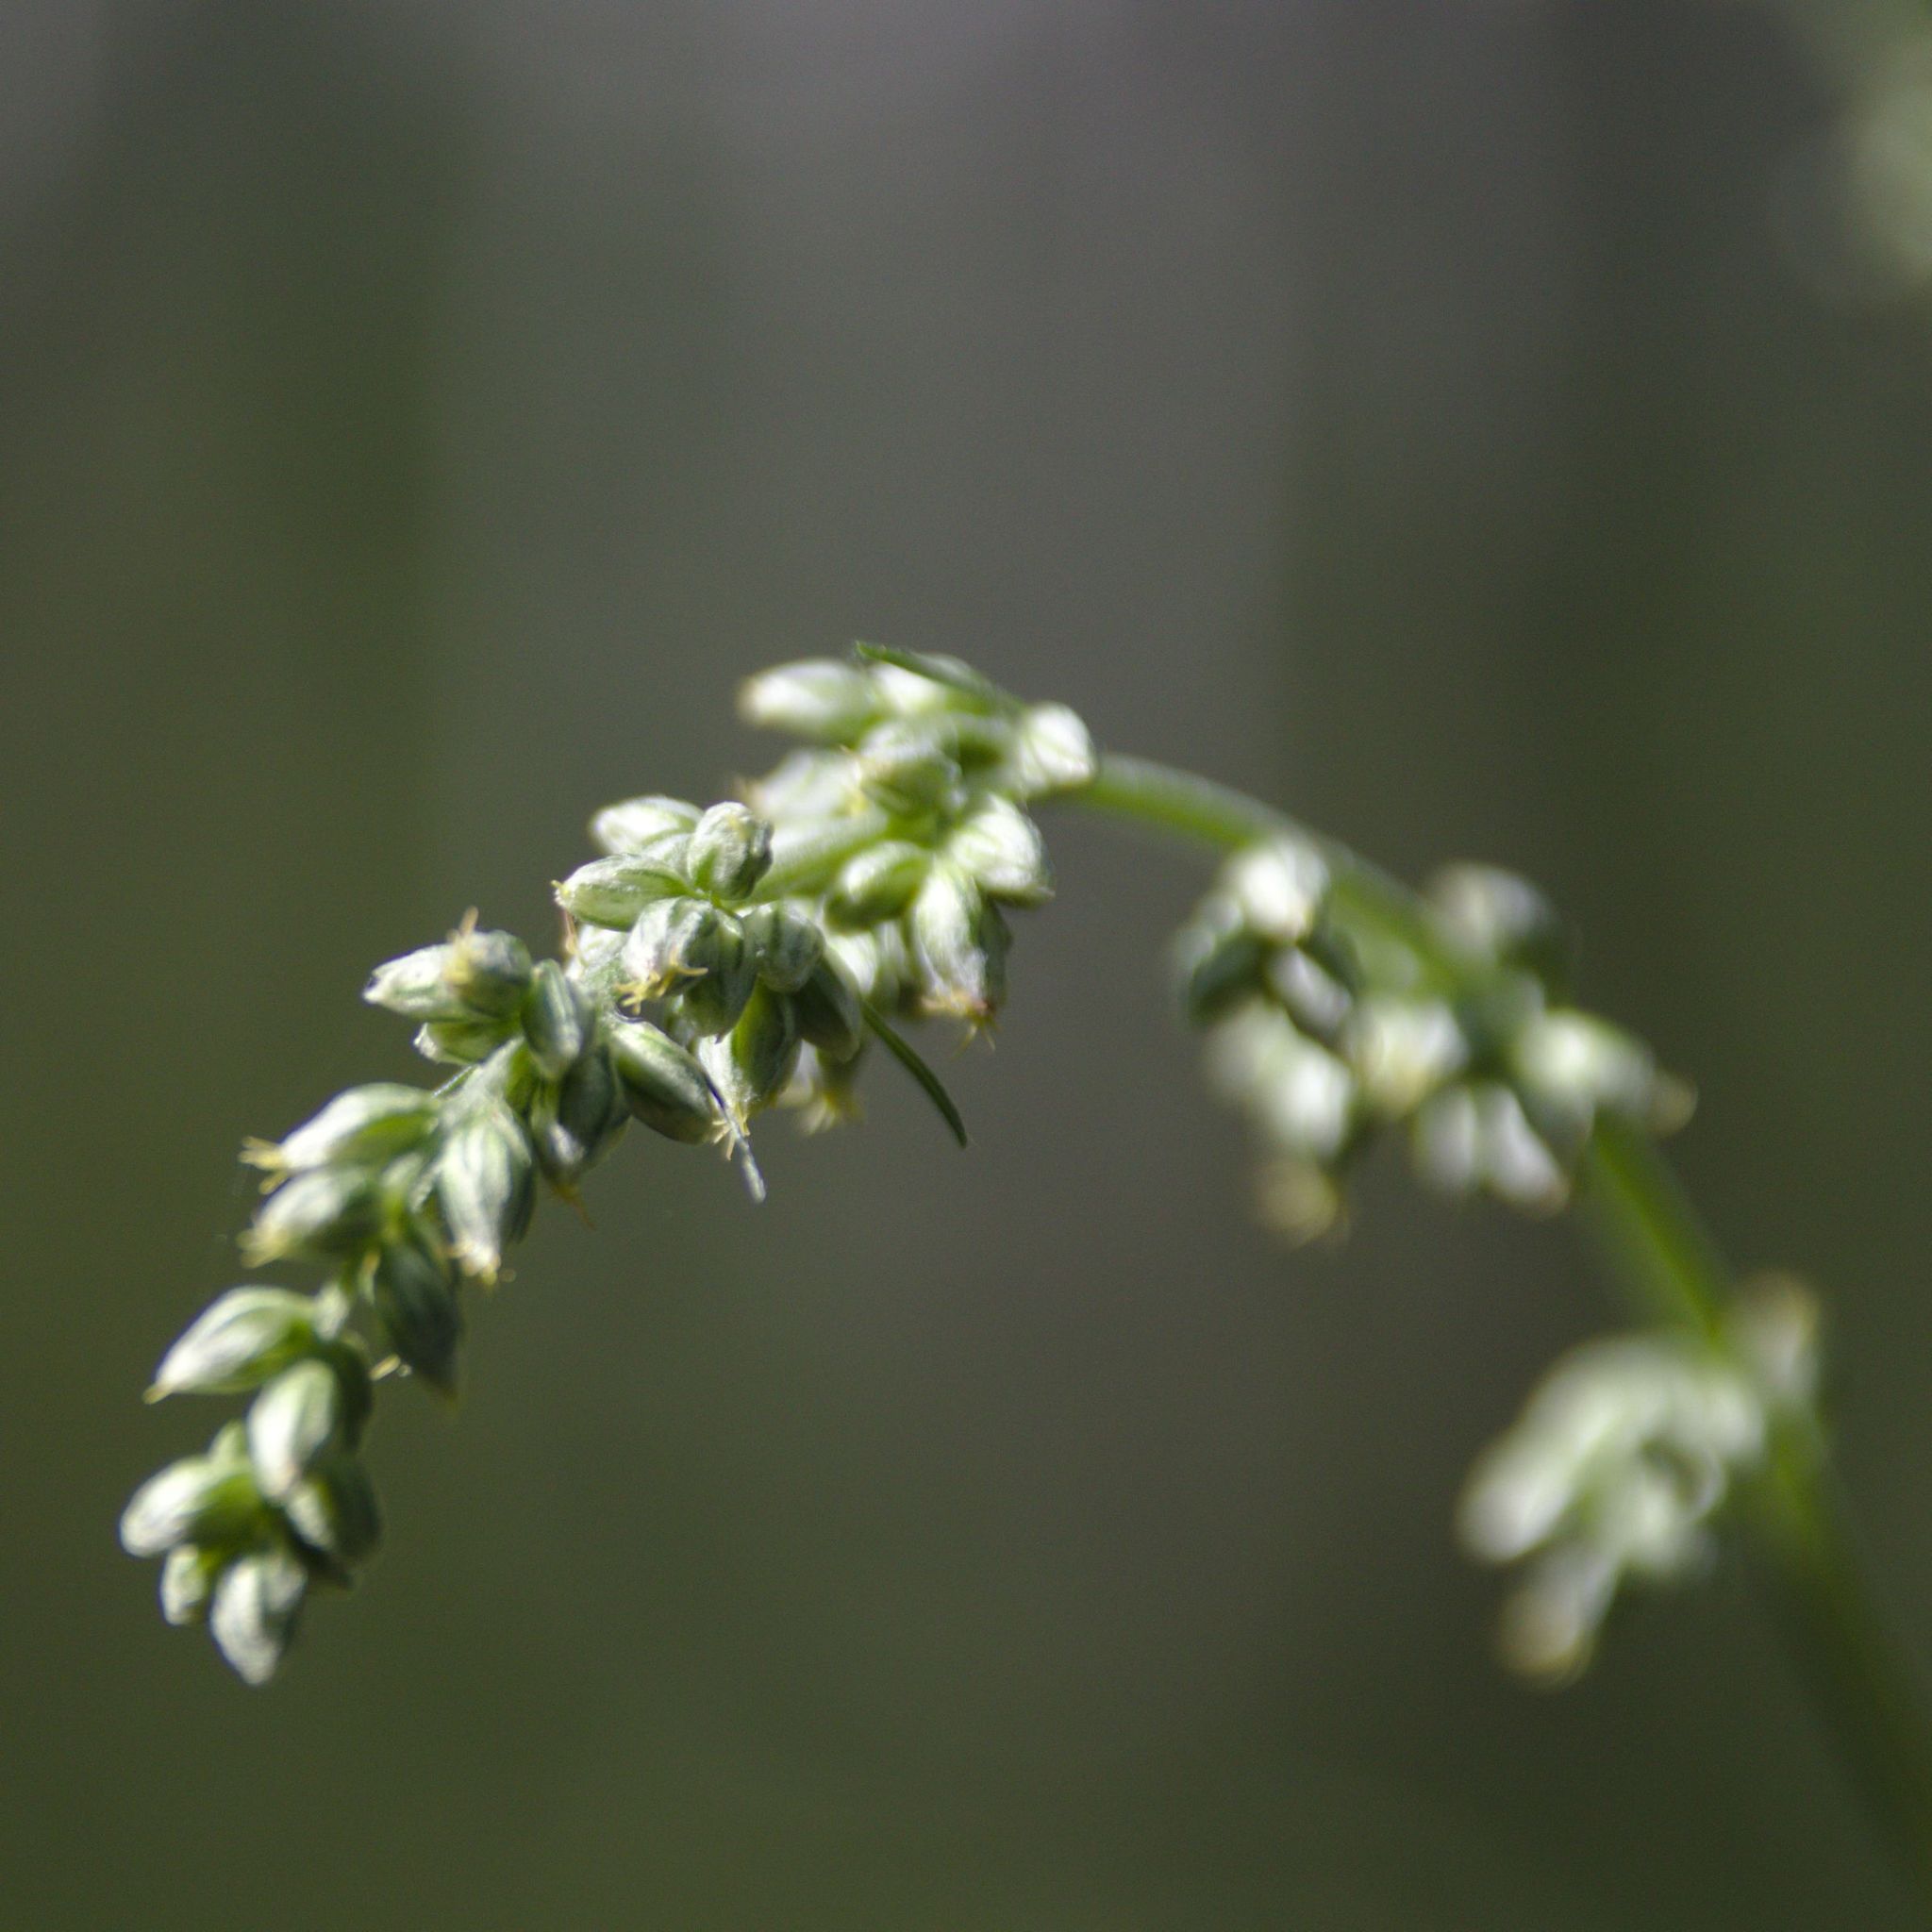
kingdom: Plantae
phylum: Tracheophyta
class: Magnoliopsida
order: Asterales
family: Asteraceae
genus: Artemisia
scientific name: Artemisia vulgaris
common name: Mugwort
